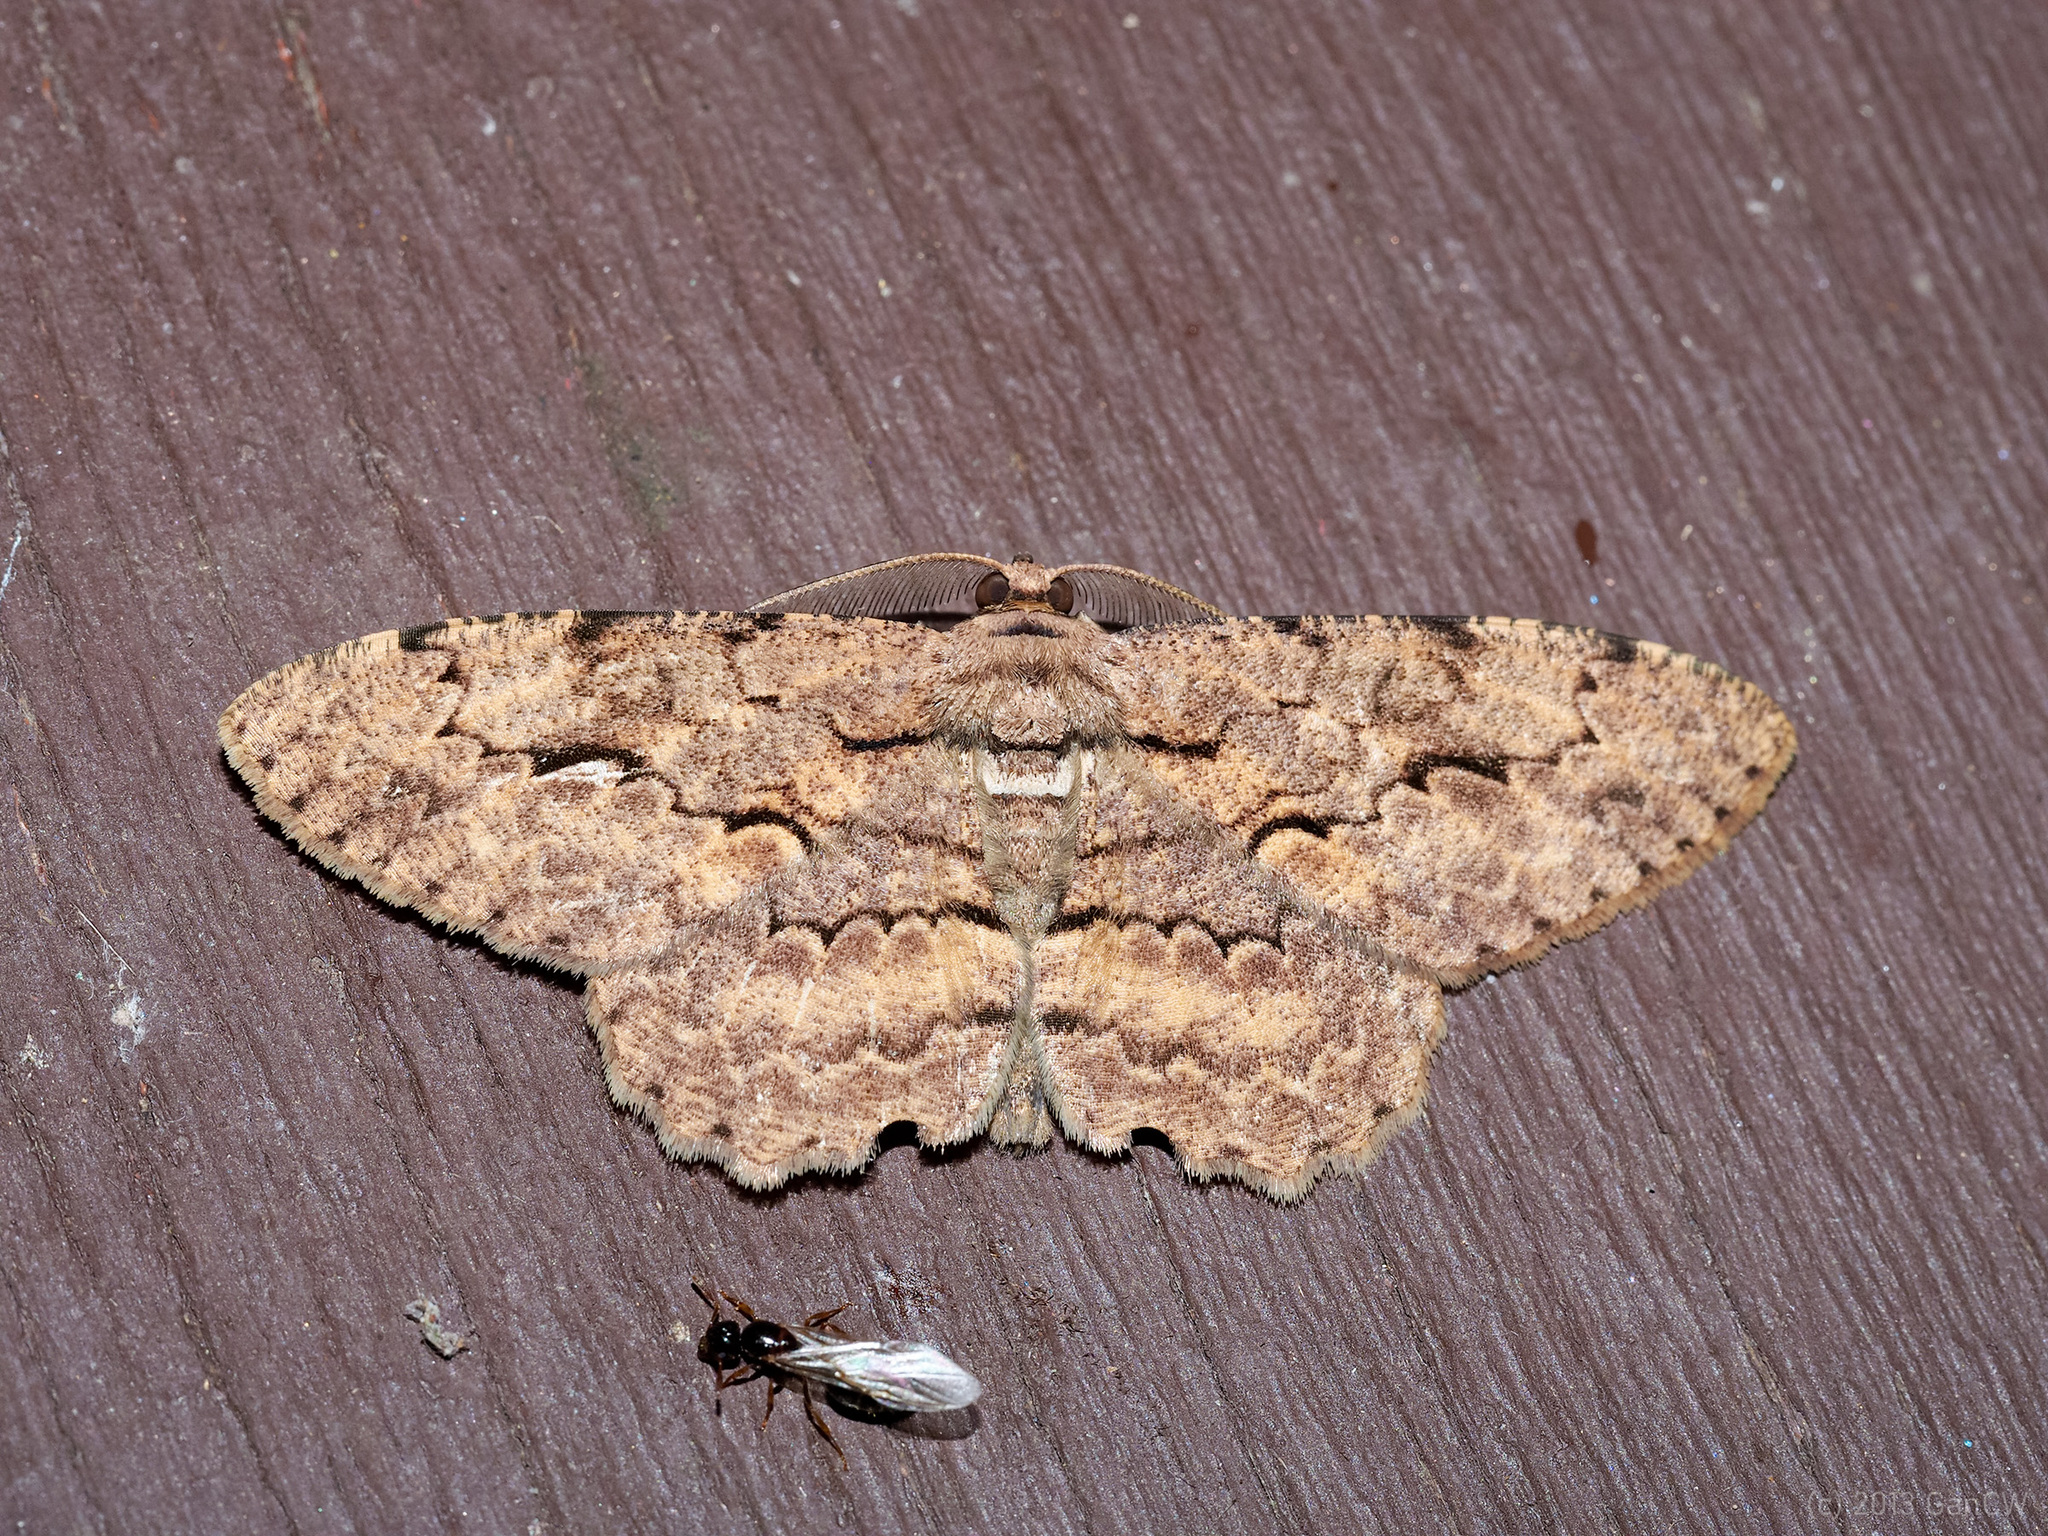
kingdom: Animalia
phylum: Arthropoda
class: Insecta
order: Lepidoptera
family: Geometridae
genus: Hypomecis
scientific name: Hypomecis costaria
